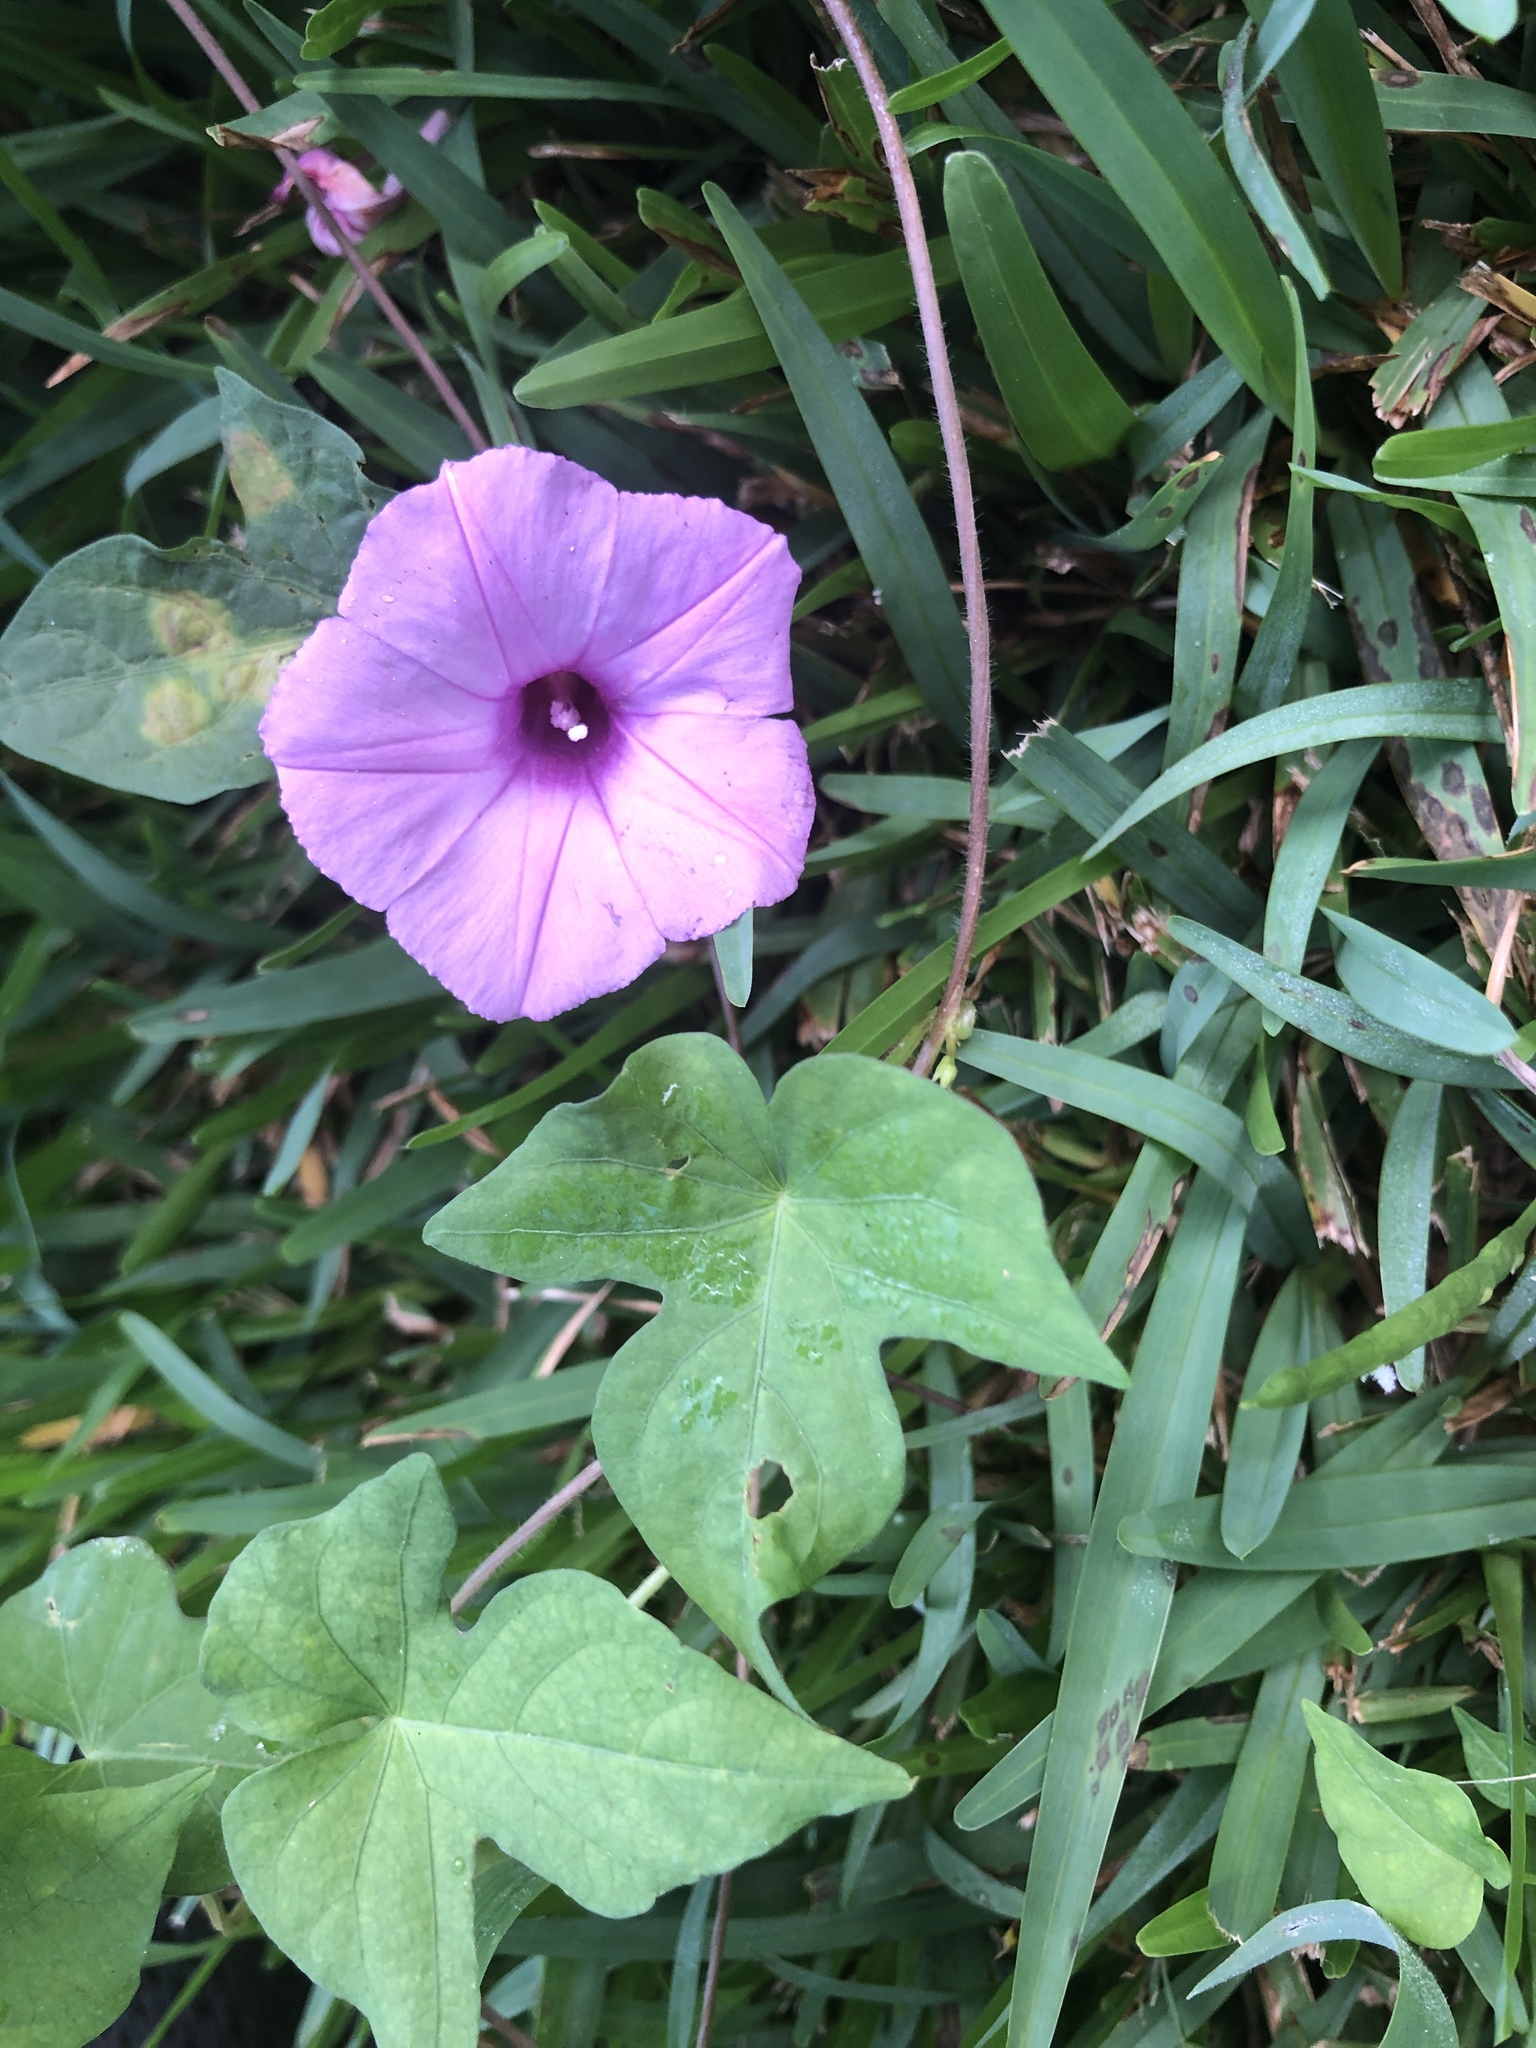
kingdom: Plantae
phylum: Tracheophyta
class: Magnoliopsida
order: Solanales
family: Convolvulaceae
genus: Ipomoea
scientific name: Ipomoea cordatotriloba
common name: Cotton morning glory
